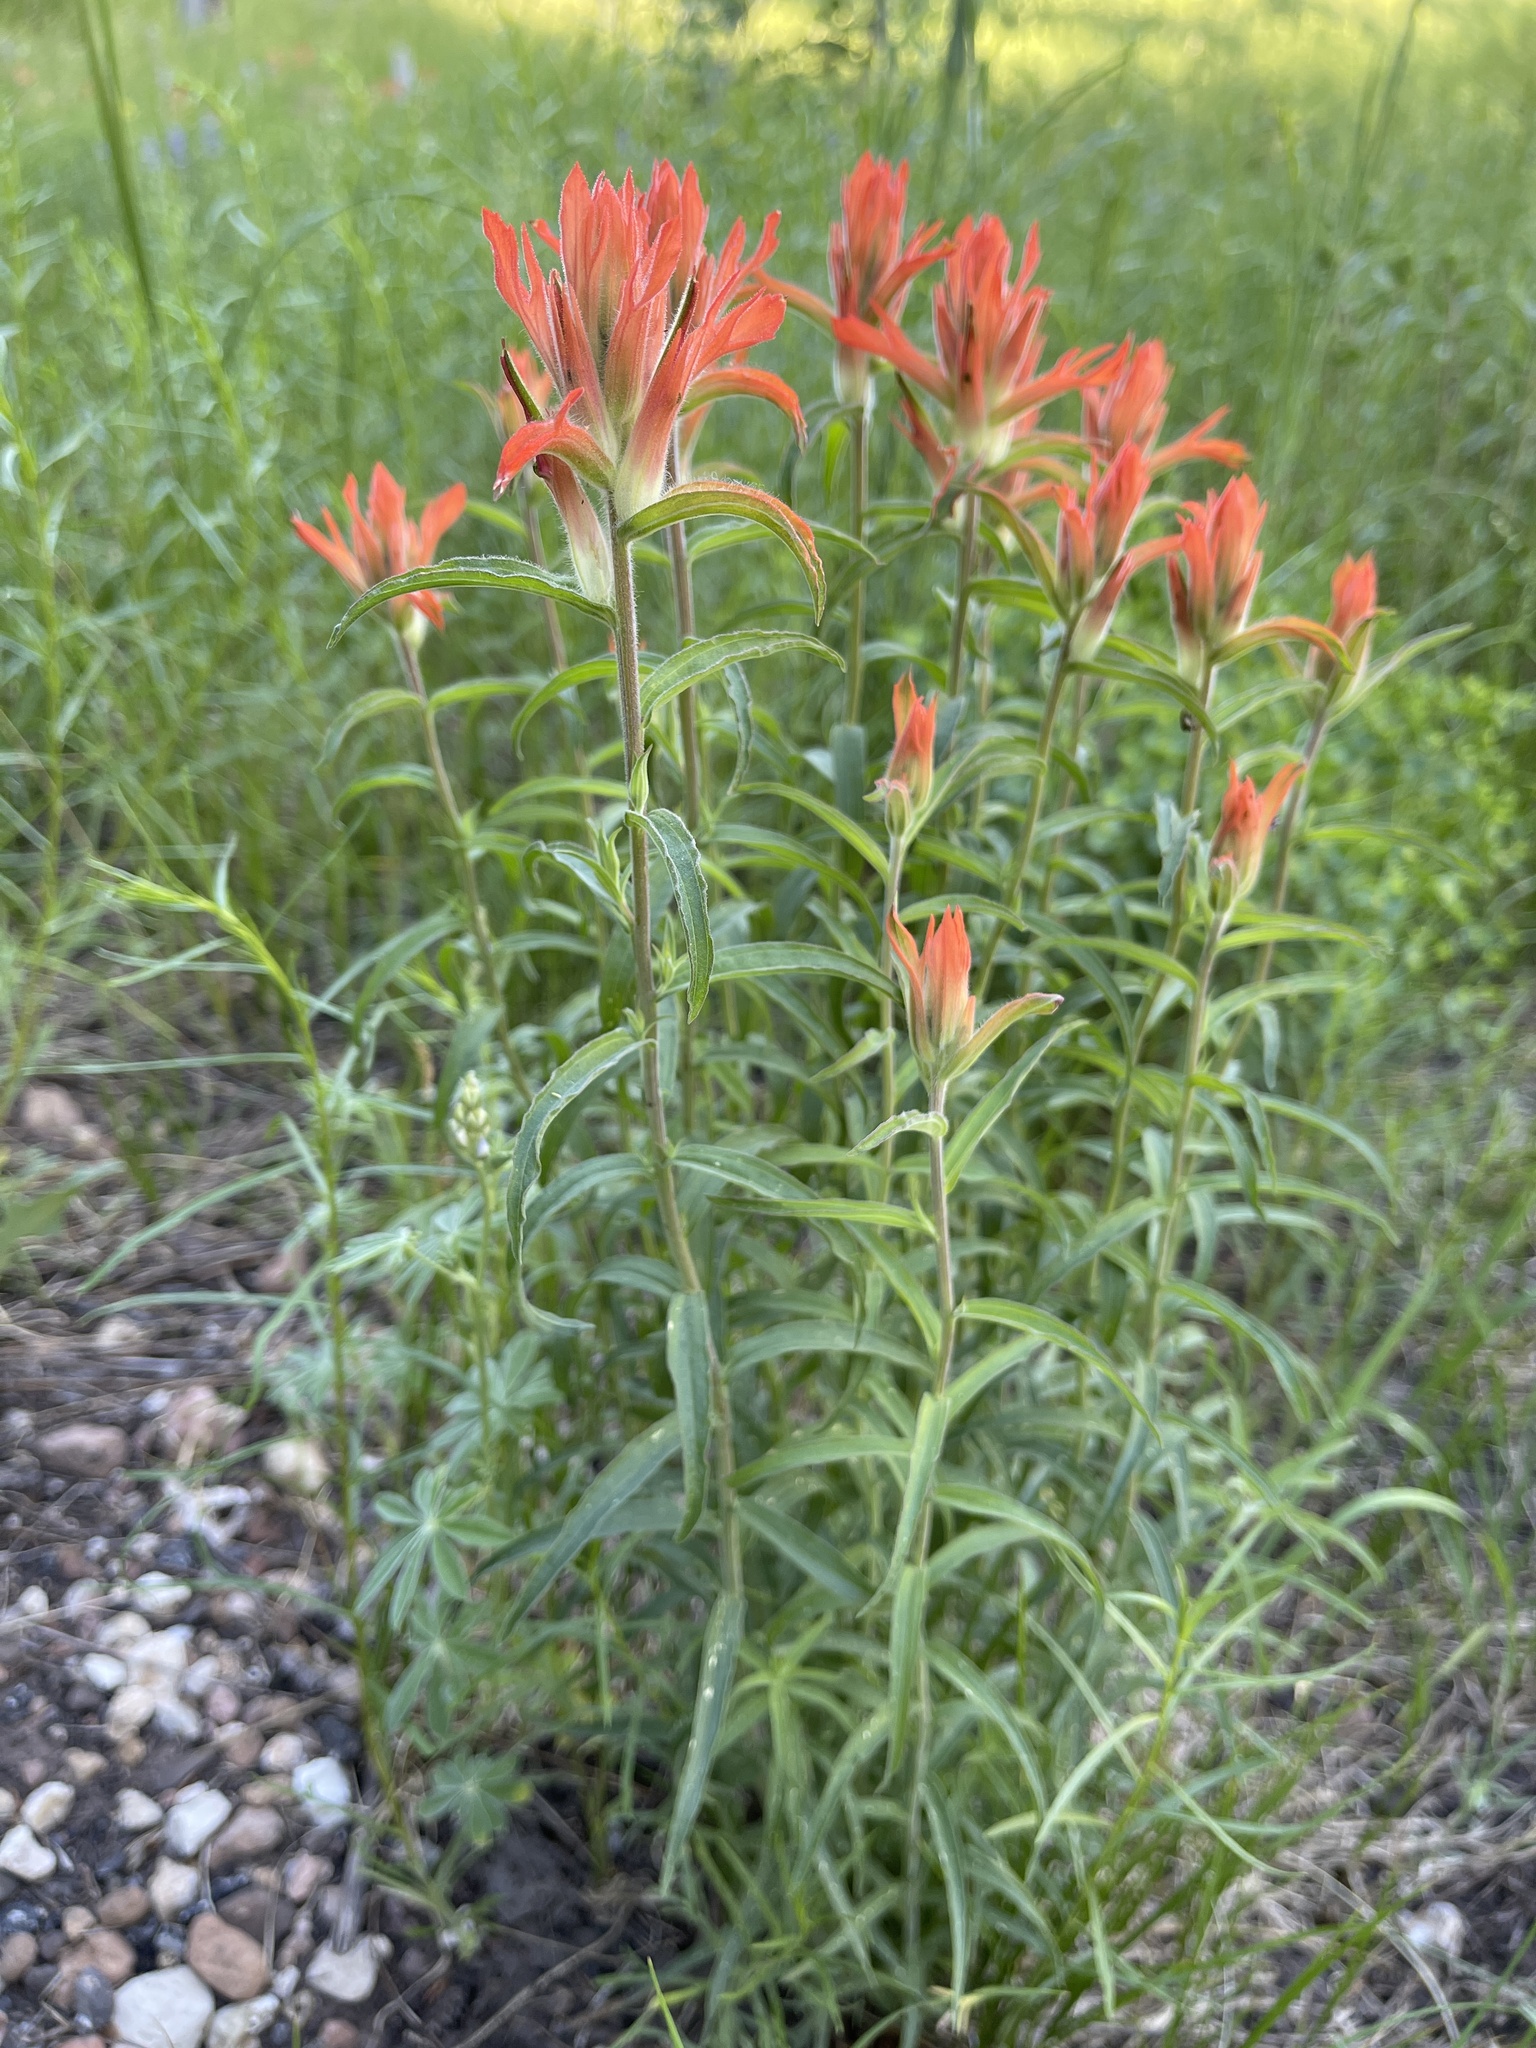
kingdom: Plantae
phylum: Tracheophyta
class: Magnoliopsida
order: Lamiales
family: Orobanchaceae
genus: Castilleja
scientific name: Castilleja miniata
